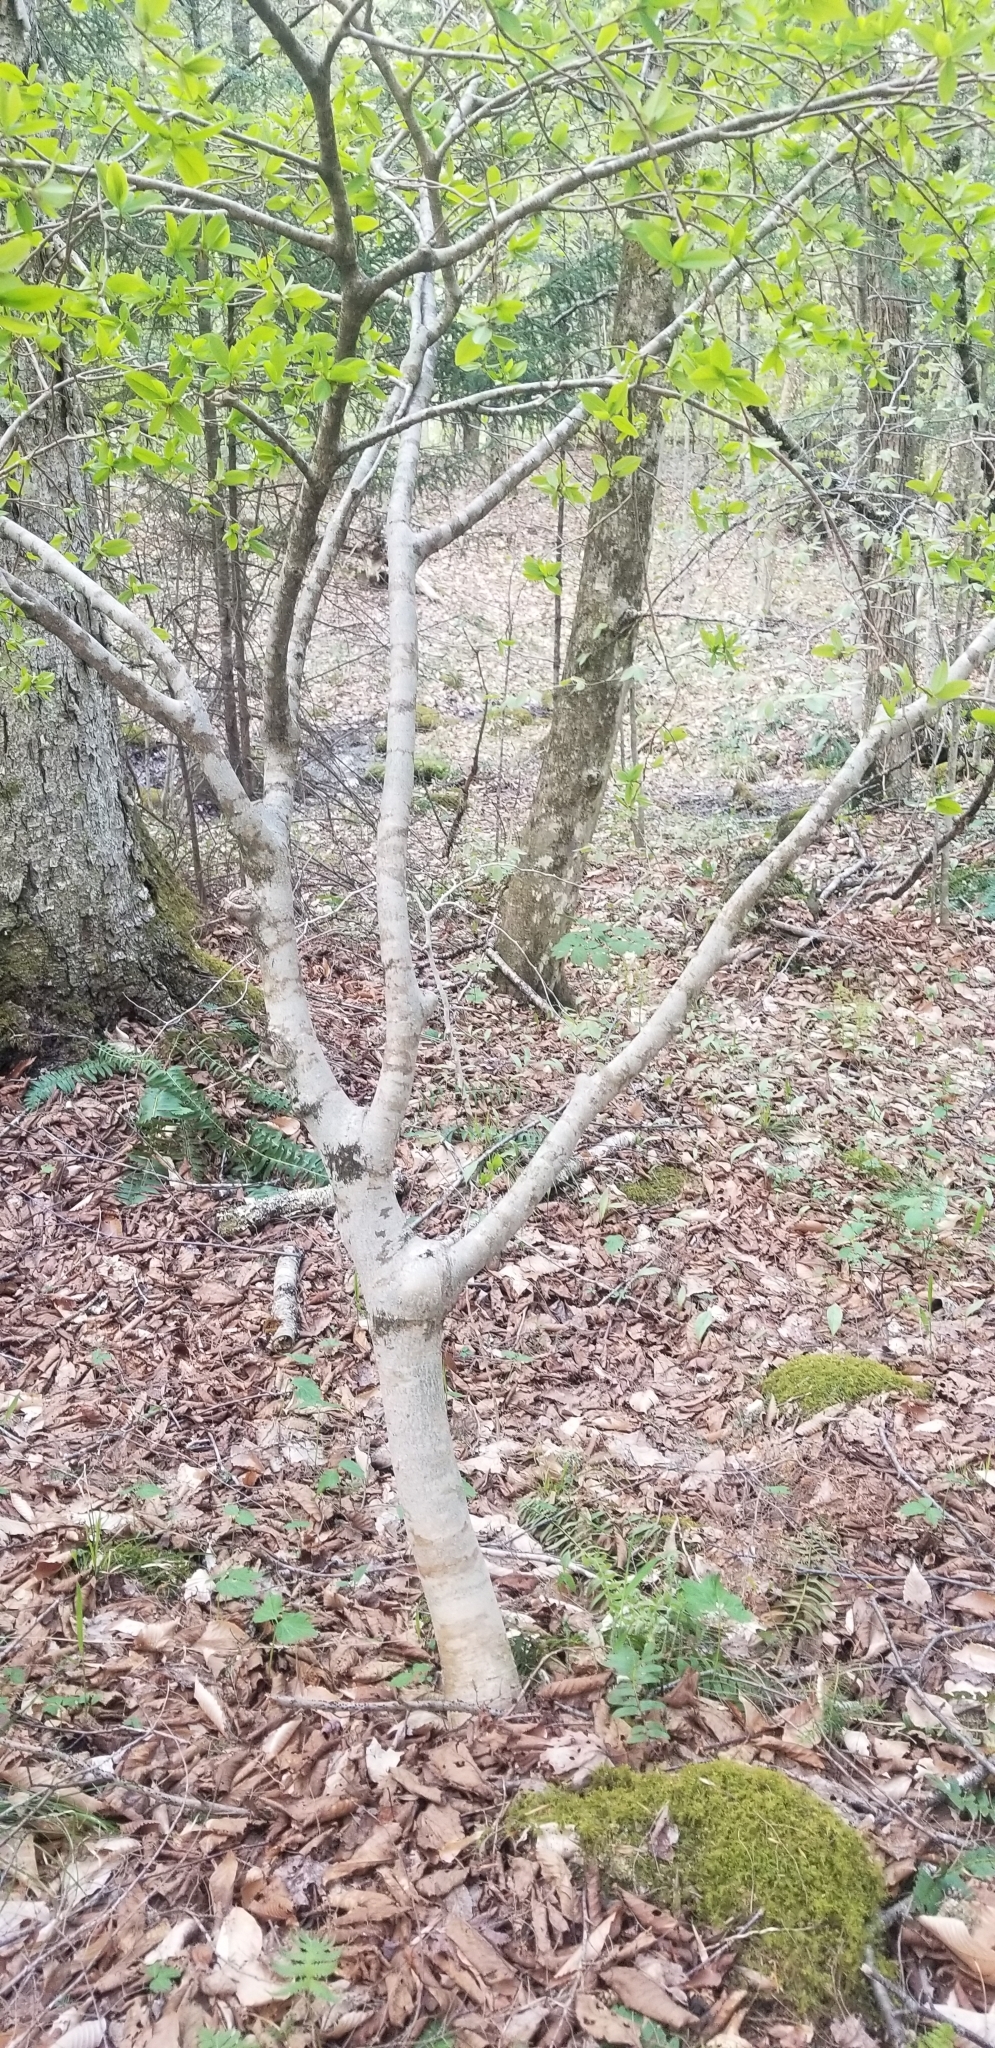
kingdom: Plantae
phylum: Tracheophyta
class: Magnoliopsida
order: Malvales
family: Thymelaeaceae
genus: Dirca
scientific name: Dirca palustris
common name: Leatherwood
